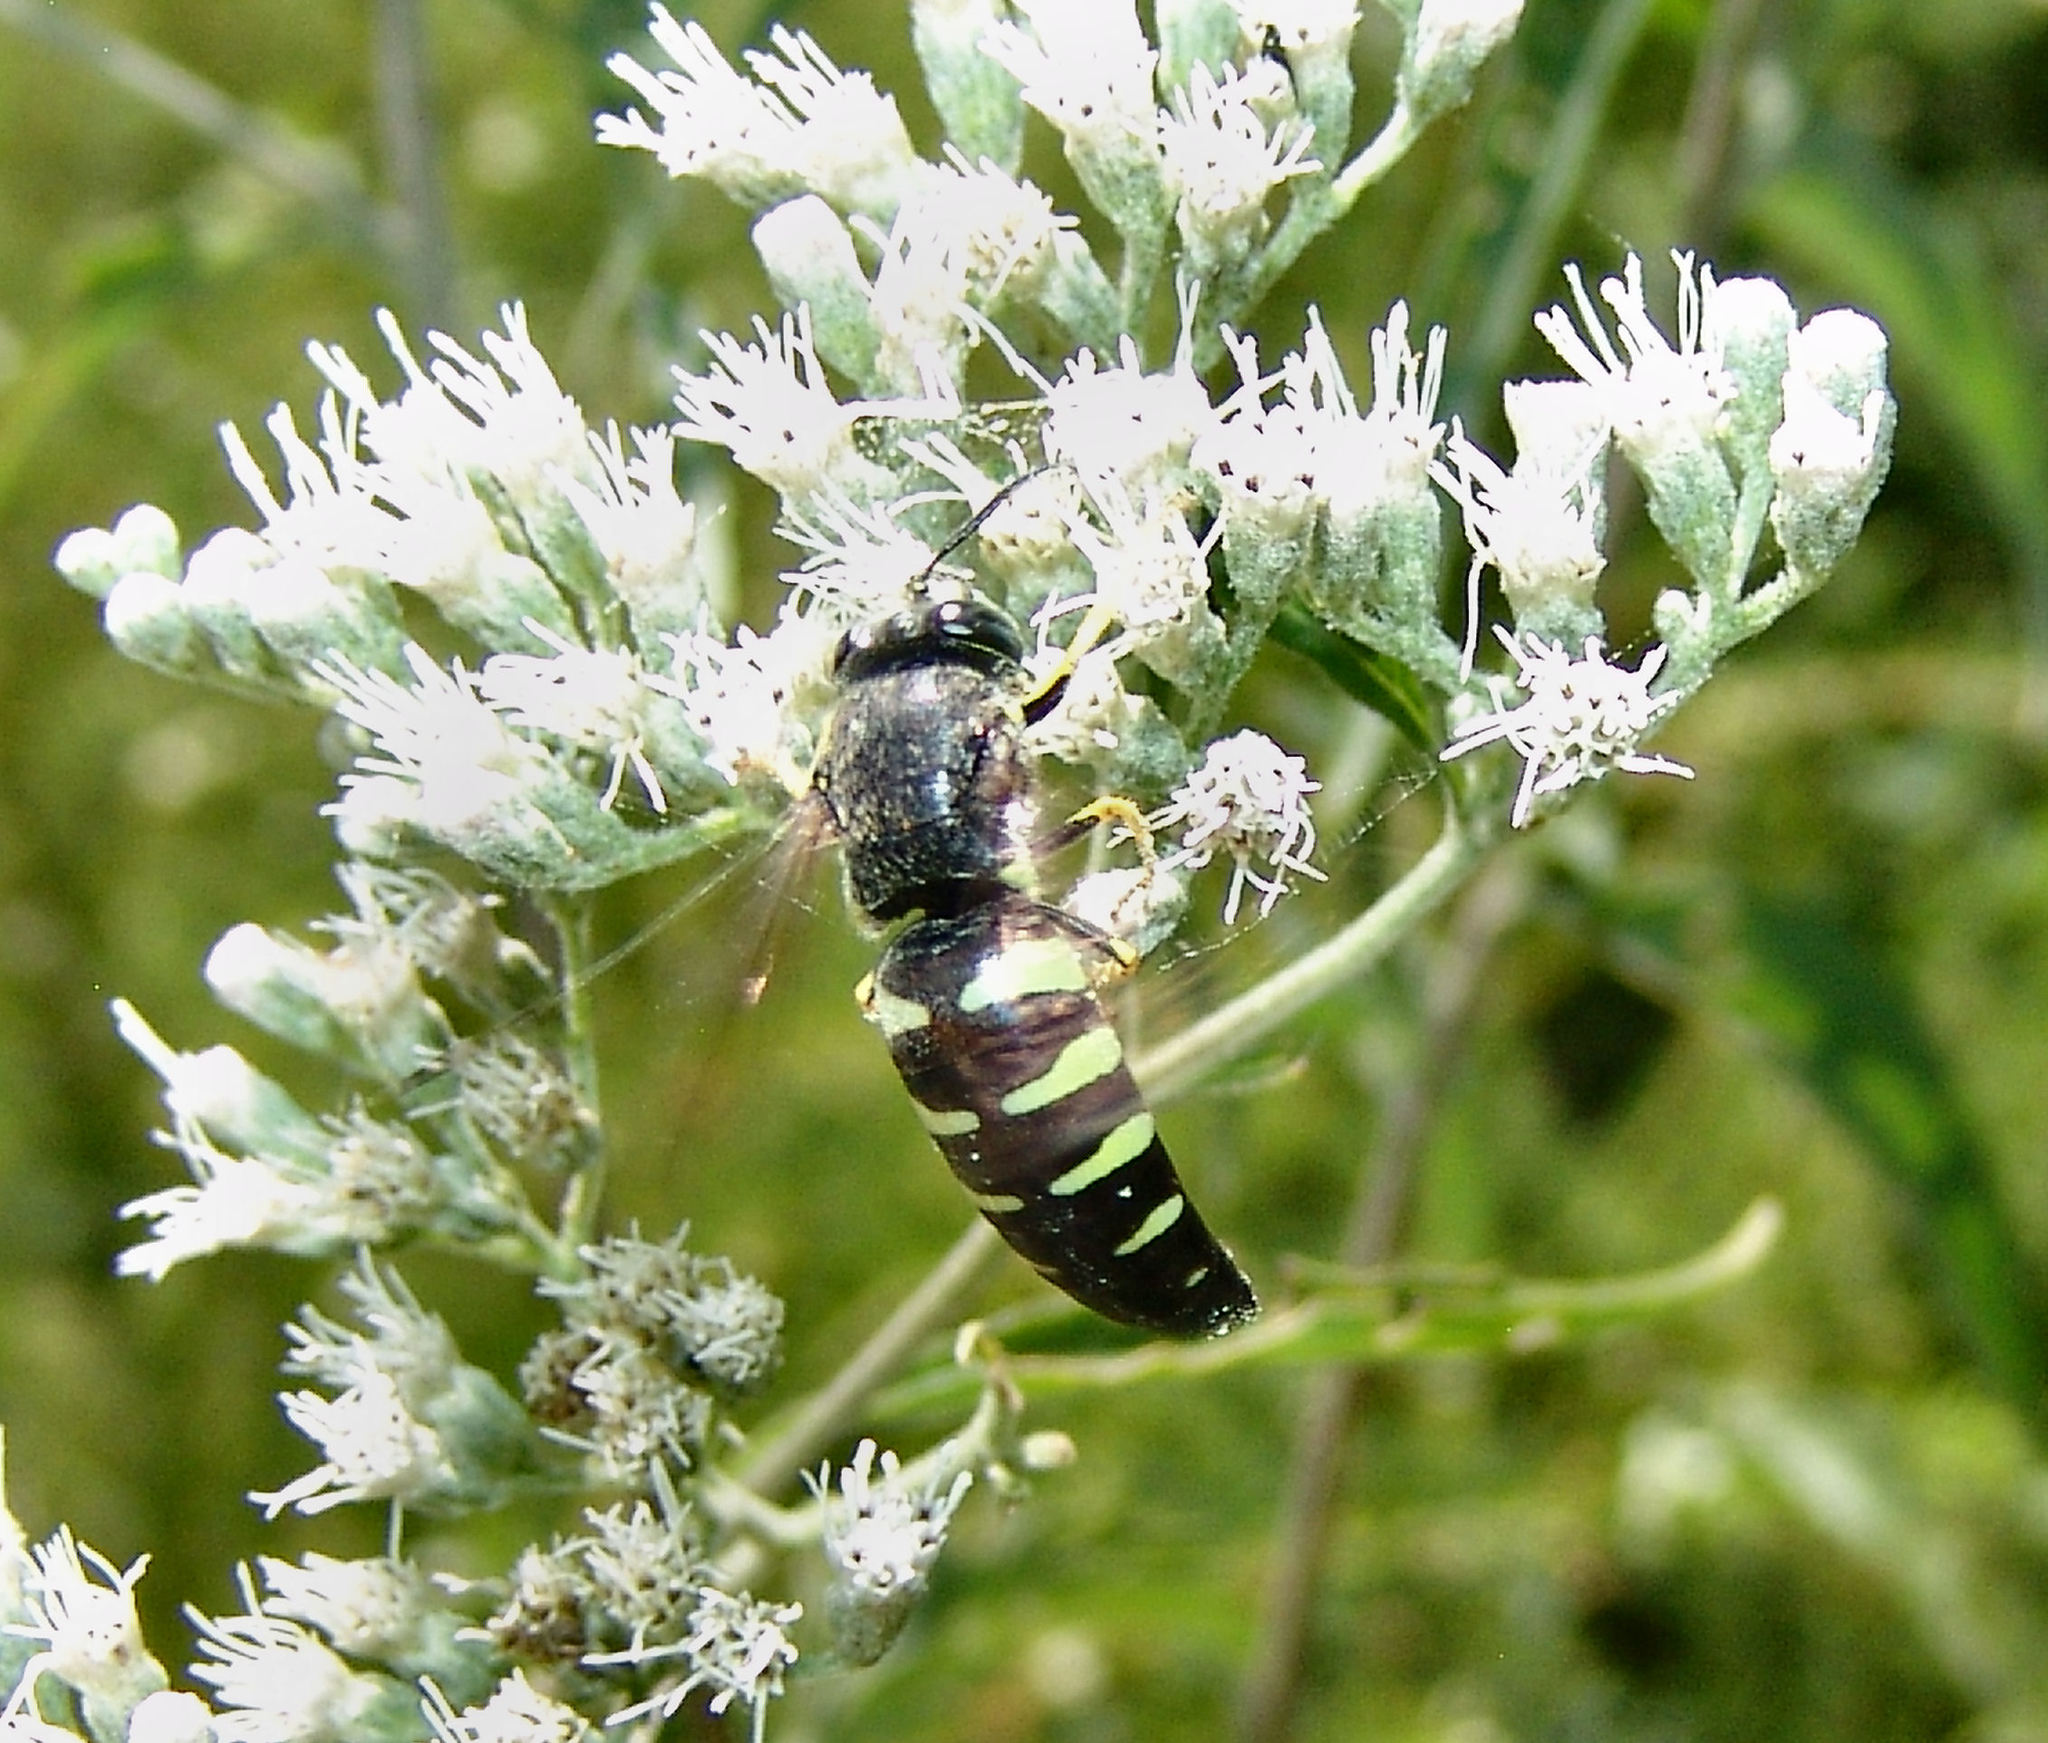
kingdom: Animalia
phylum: Arthropoda
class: Insecta
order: Hymenoptera
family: Crabronidae
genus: Bicyrtes
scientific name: Bicyrtes quadrifasciatus
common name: Four-banded stink bug hunter wasp
